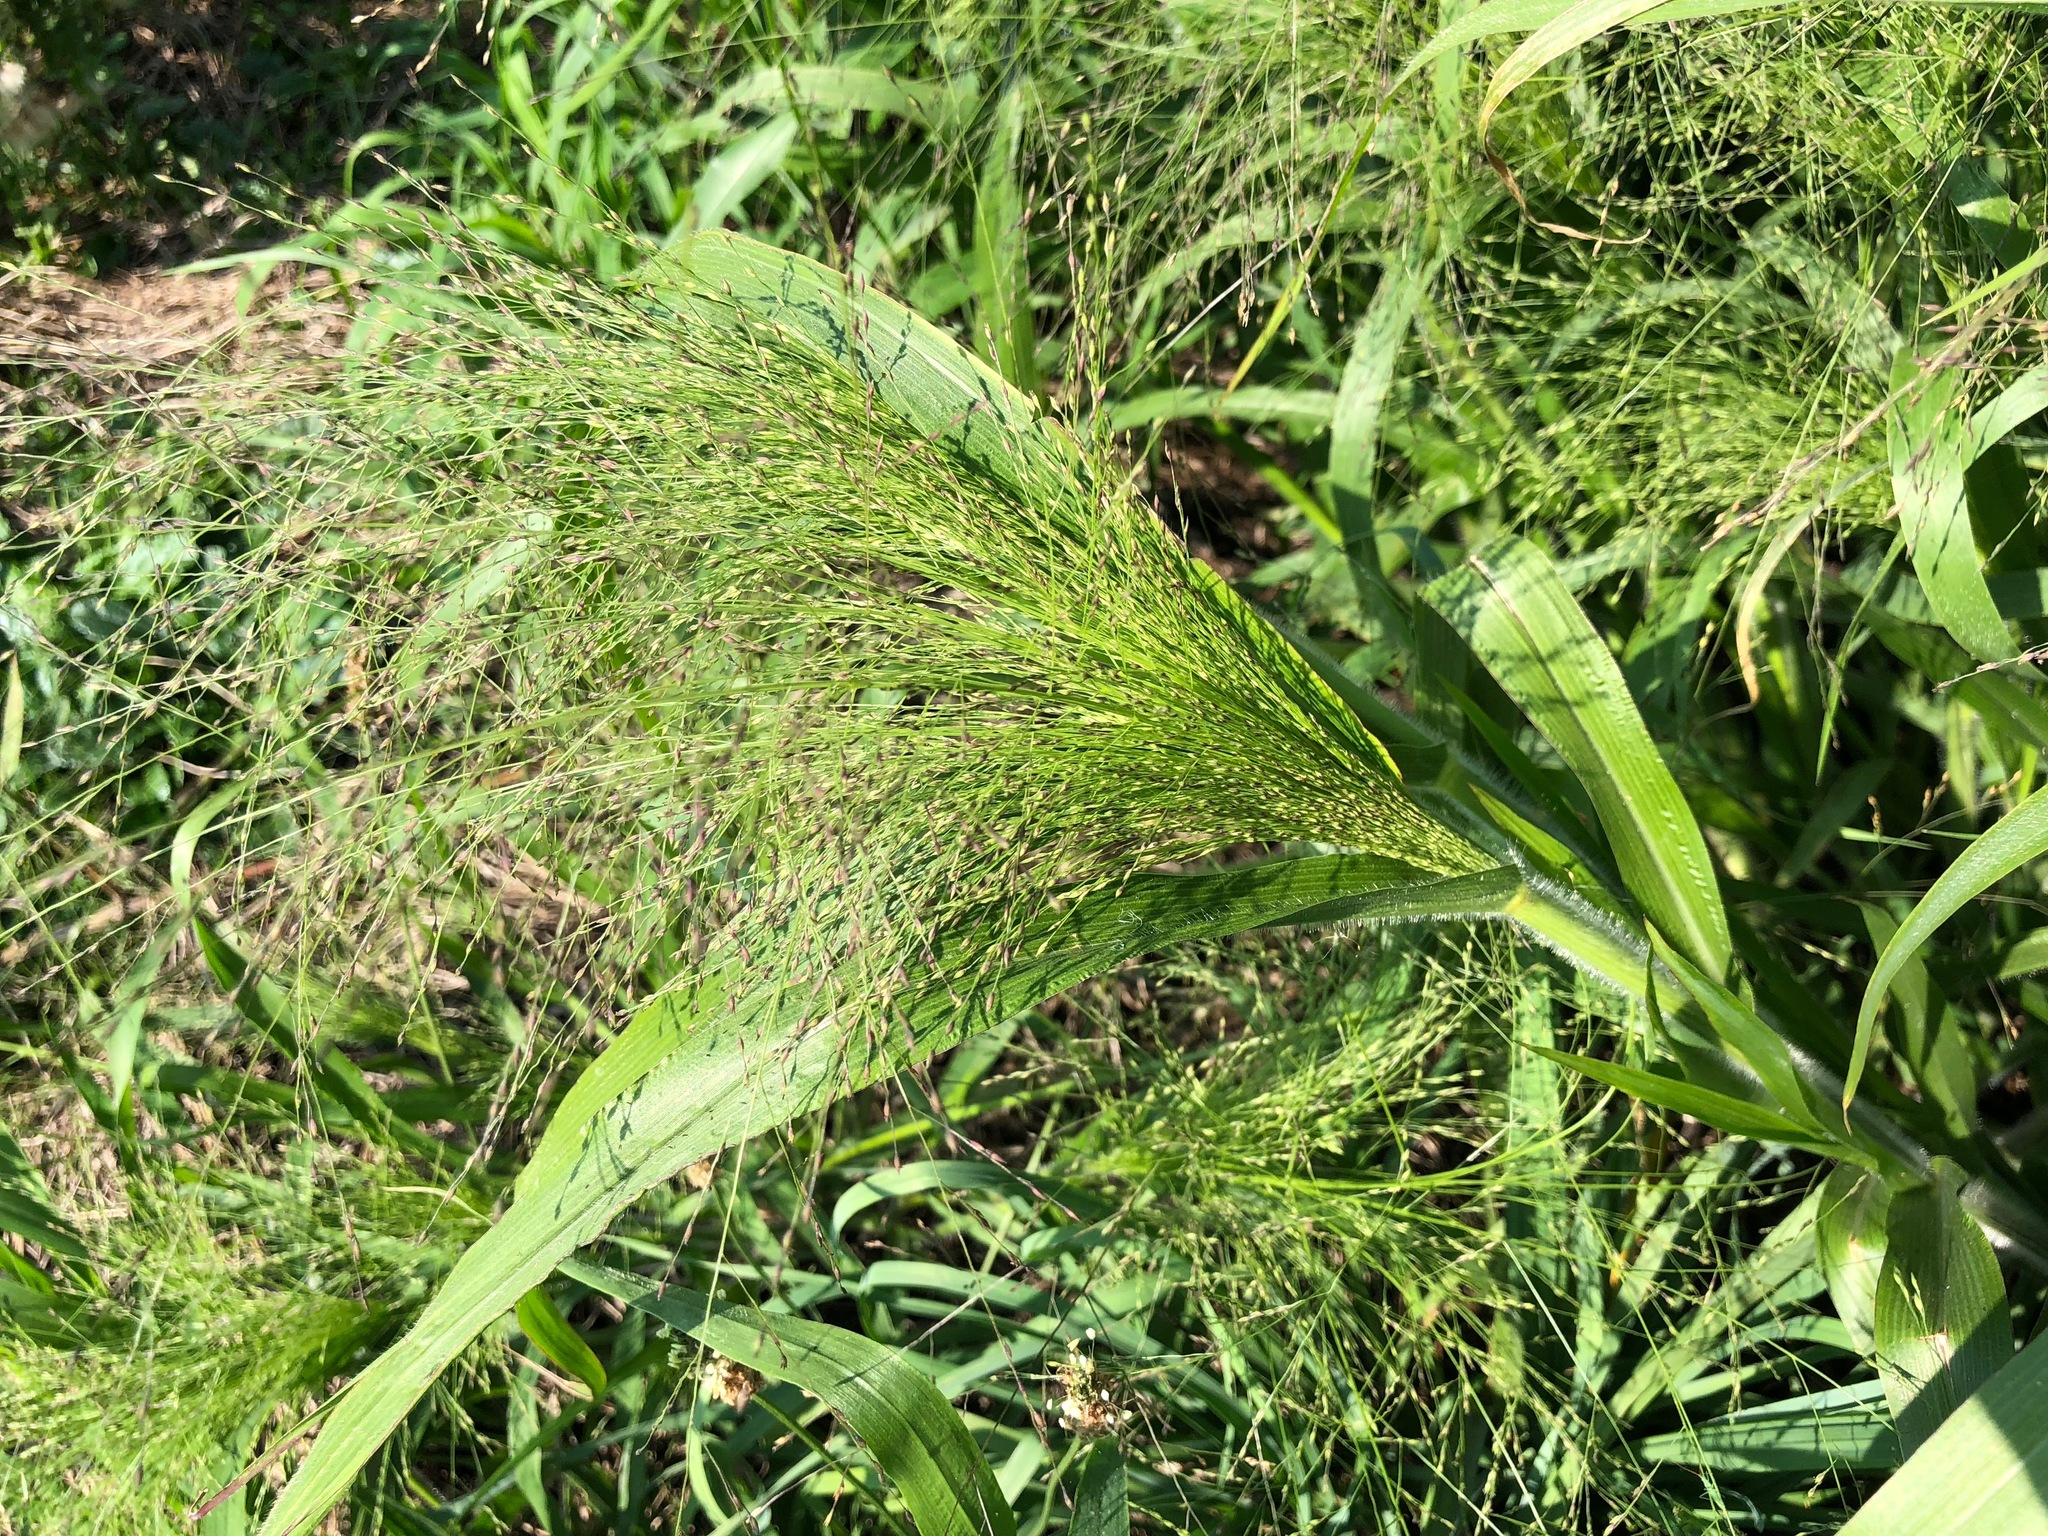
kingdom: Plantae
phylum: Tracheophyta
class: Liliopsida
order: Poales
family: Poaceae
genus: Panicum
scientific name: Panicum capillare
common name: Witch-grass
